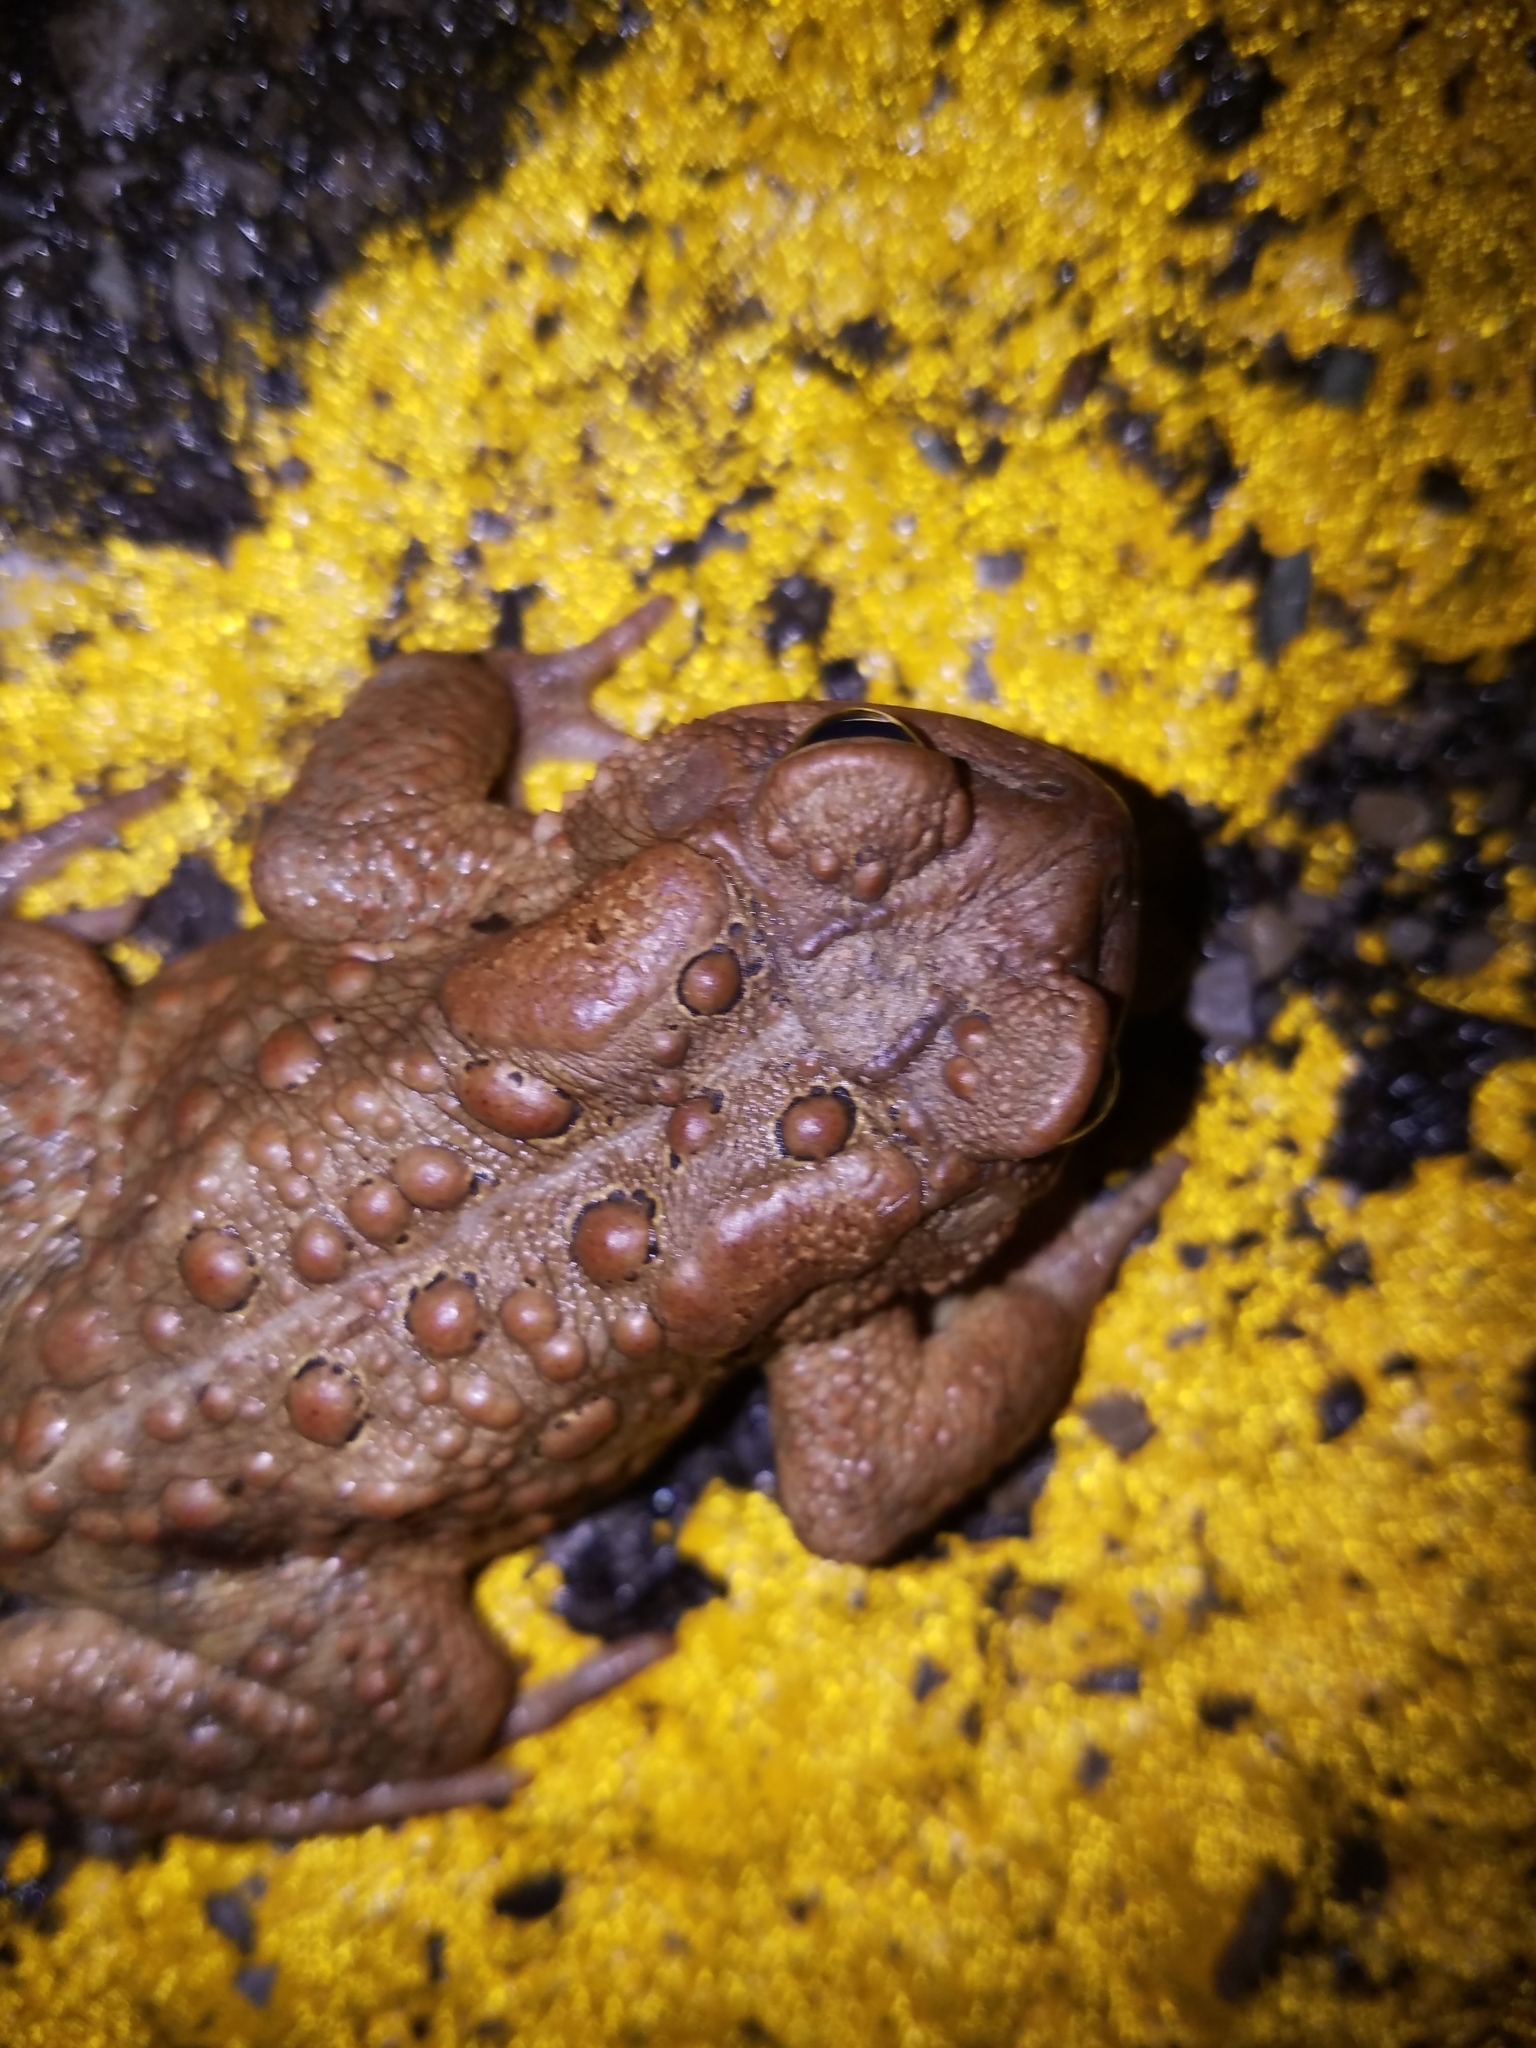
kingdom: Animalia
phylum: Chordata
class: Amphibia
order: Anura
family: Bufonidae
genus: Anaxyrus
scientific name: Anaxyrus americanus
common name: American toad
